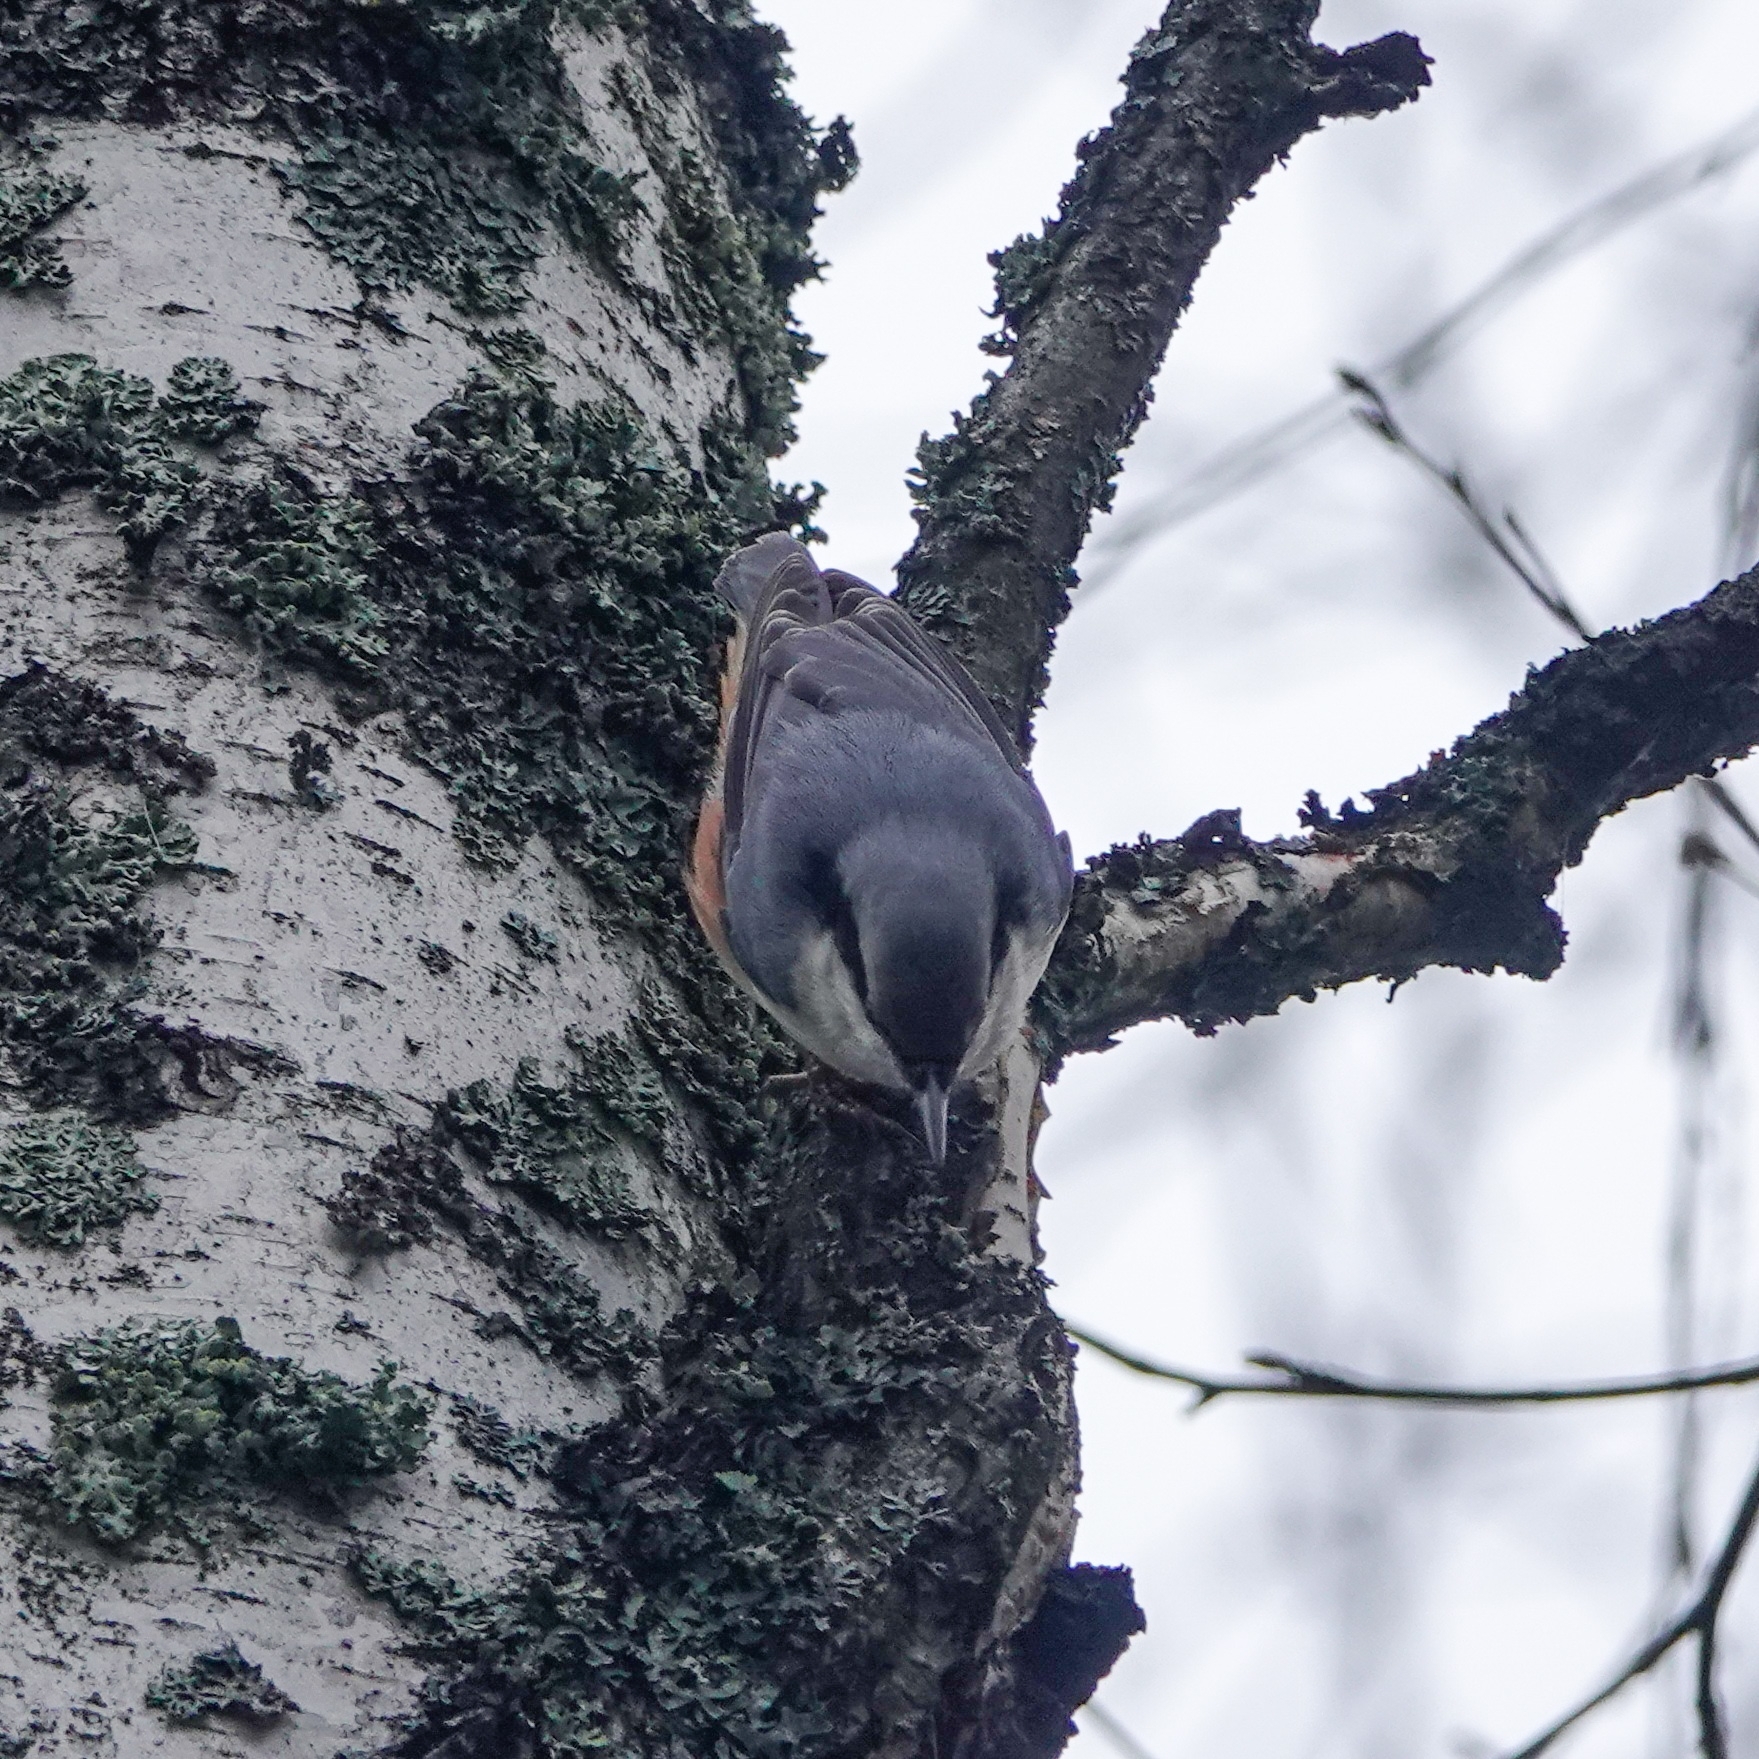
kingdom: Animalia
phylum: Chordata
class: Aves
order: Passeriformes
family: Sittidae
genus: Sitta
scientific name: Sitta europaea
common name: Eurasian nuthatch
